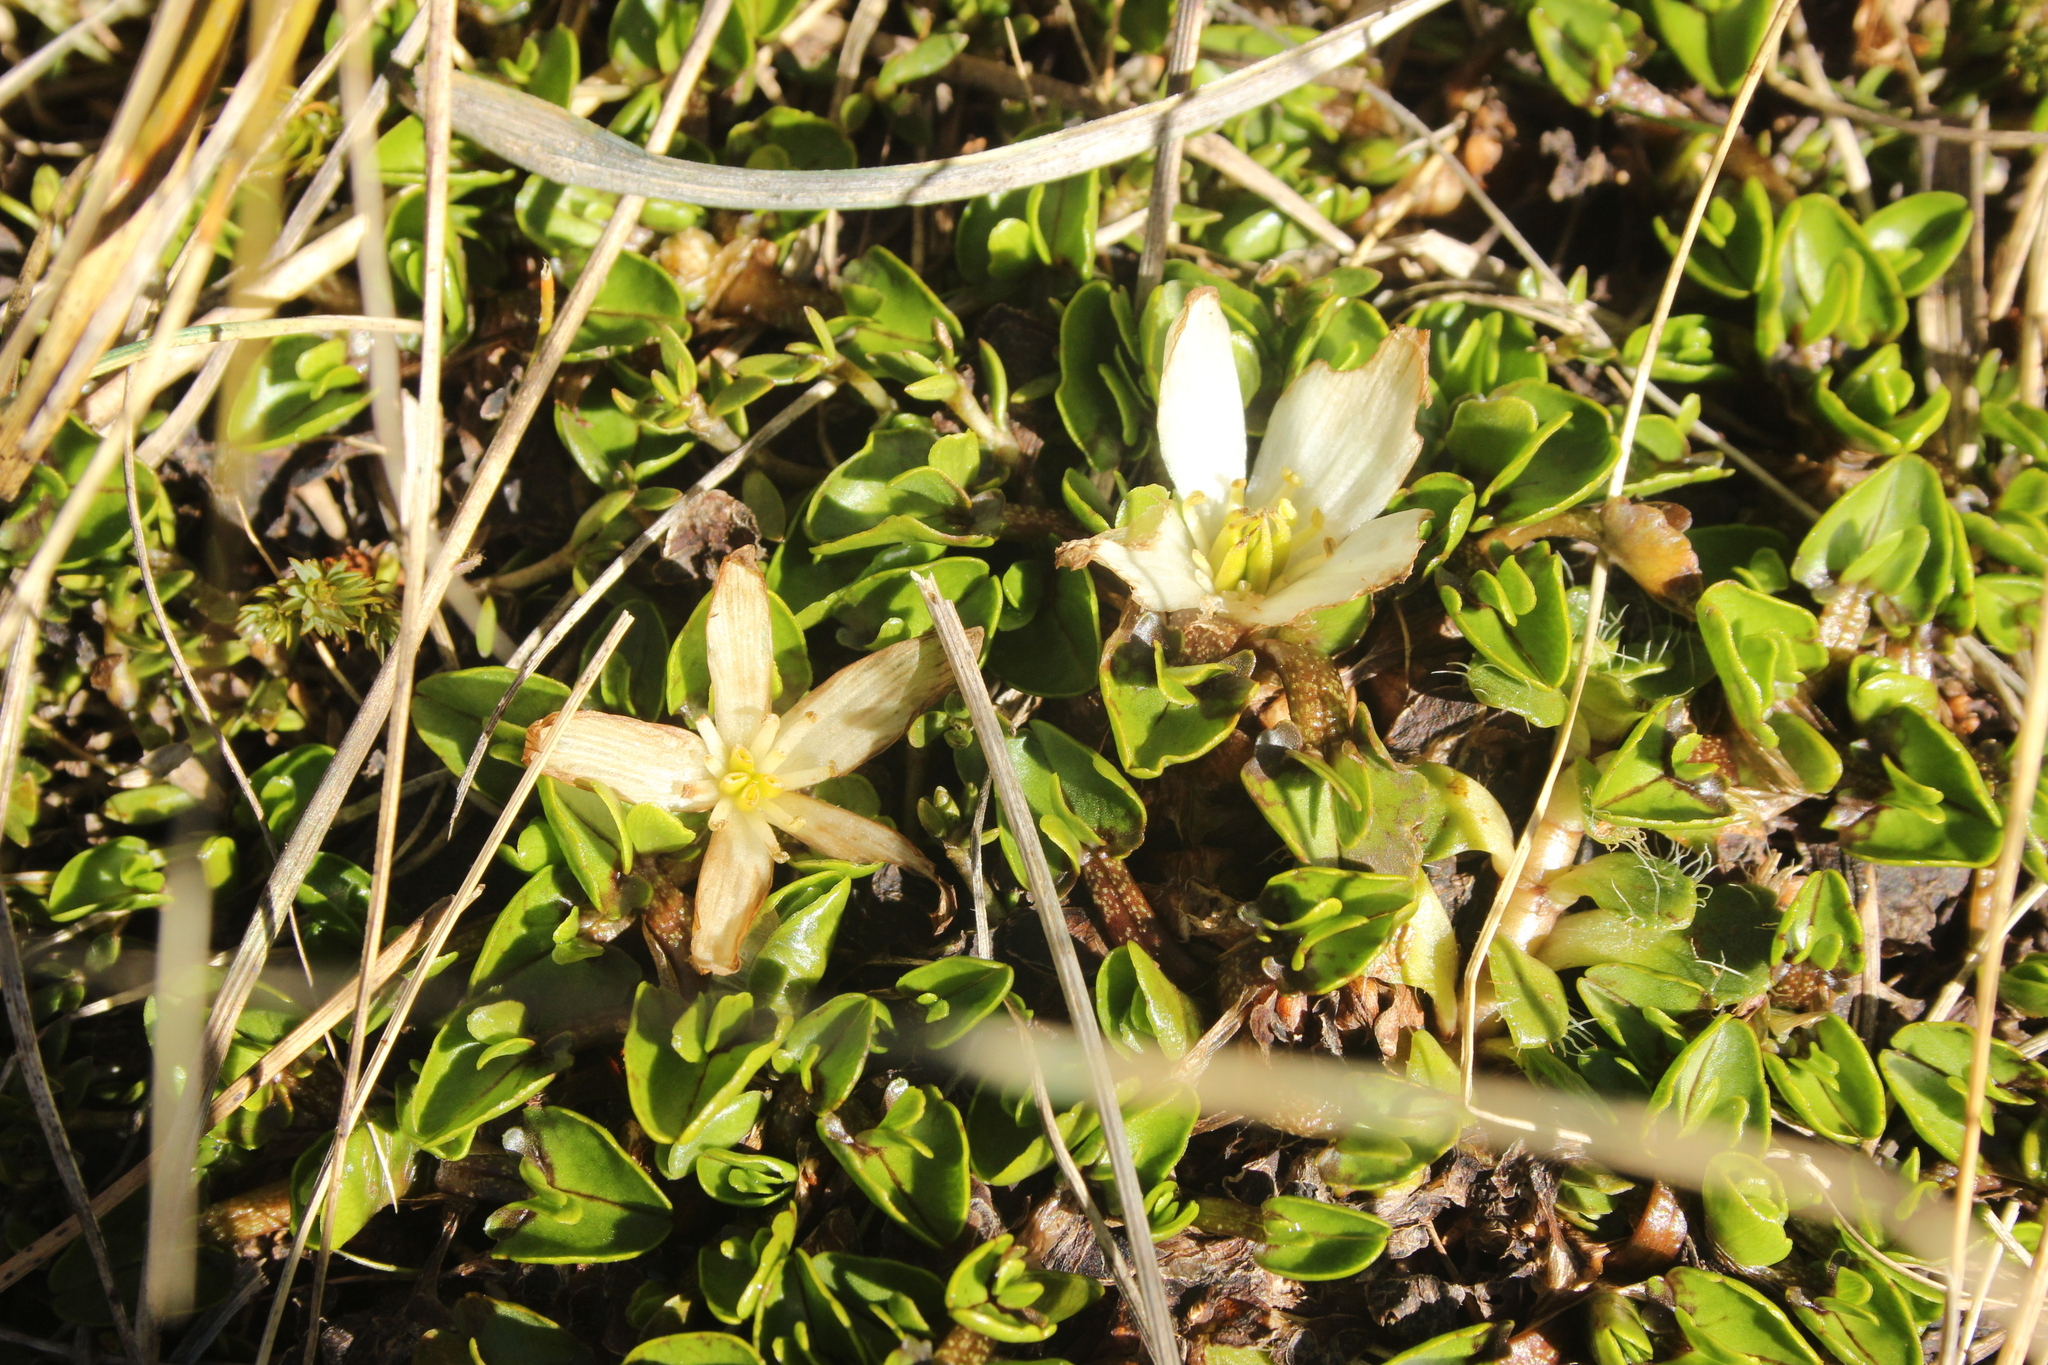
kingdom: Plantae
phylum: Tracheophyta
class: Magnoliopsida
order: Ranunculales
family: Ranunculaceae
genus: Caltha
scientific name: Caltha obtusa
